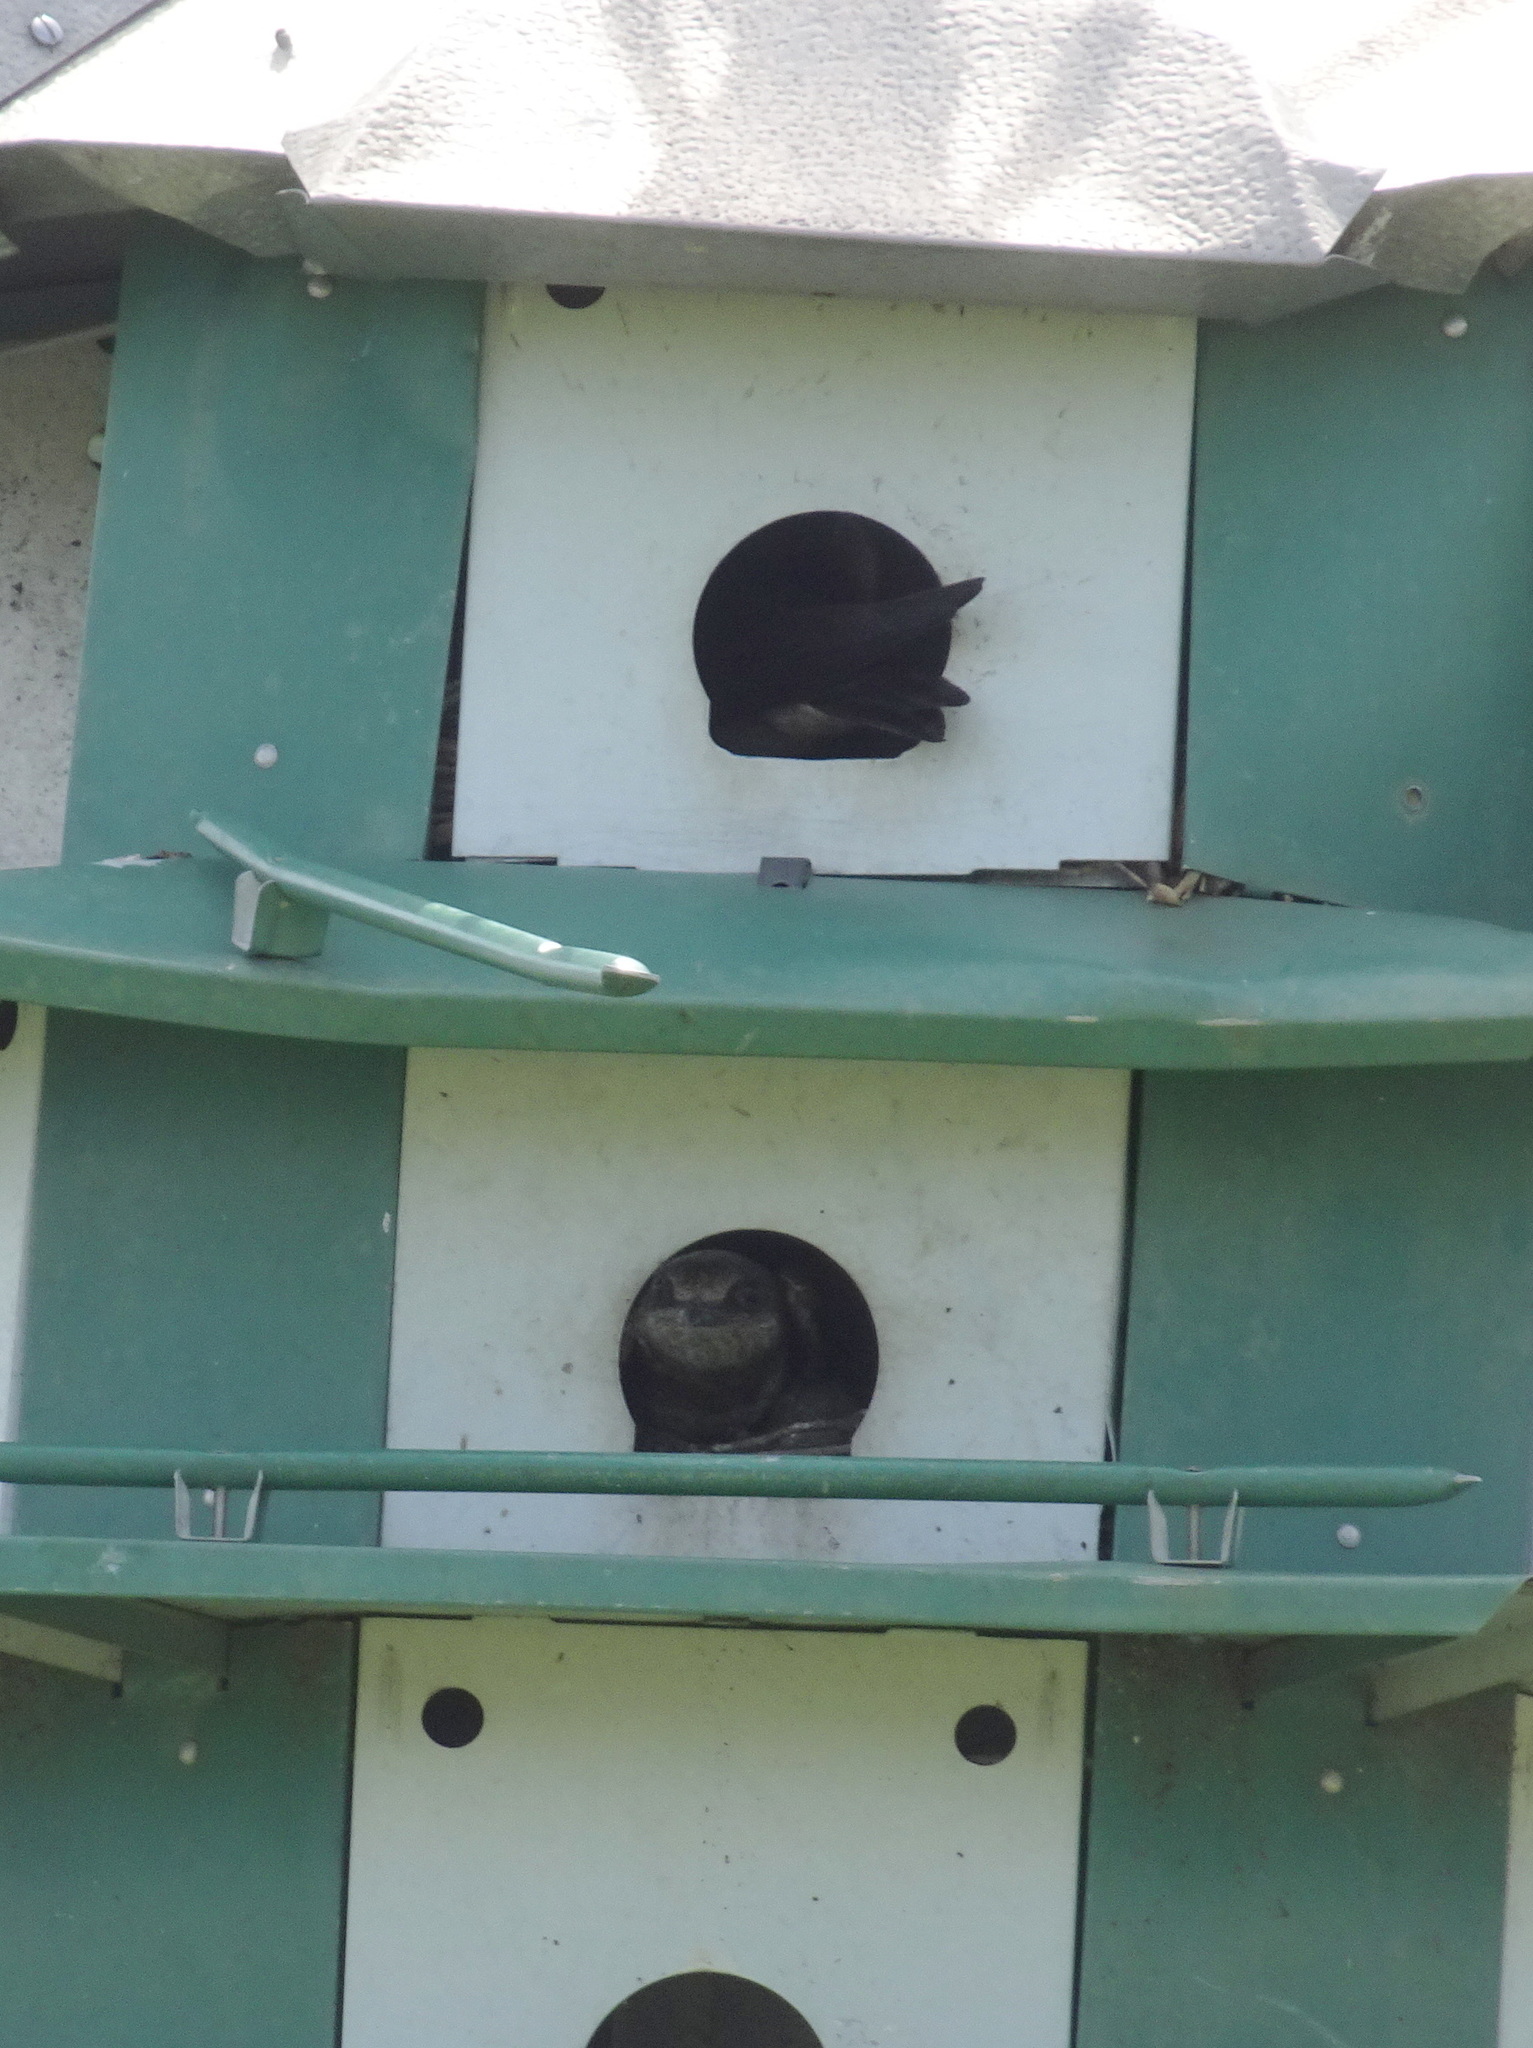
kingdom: Animalia
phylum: Chordata
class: Aves
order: Passeriformes
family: Hirundinidae
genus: Progne
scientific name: Progne subis
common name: Purple martin
